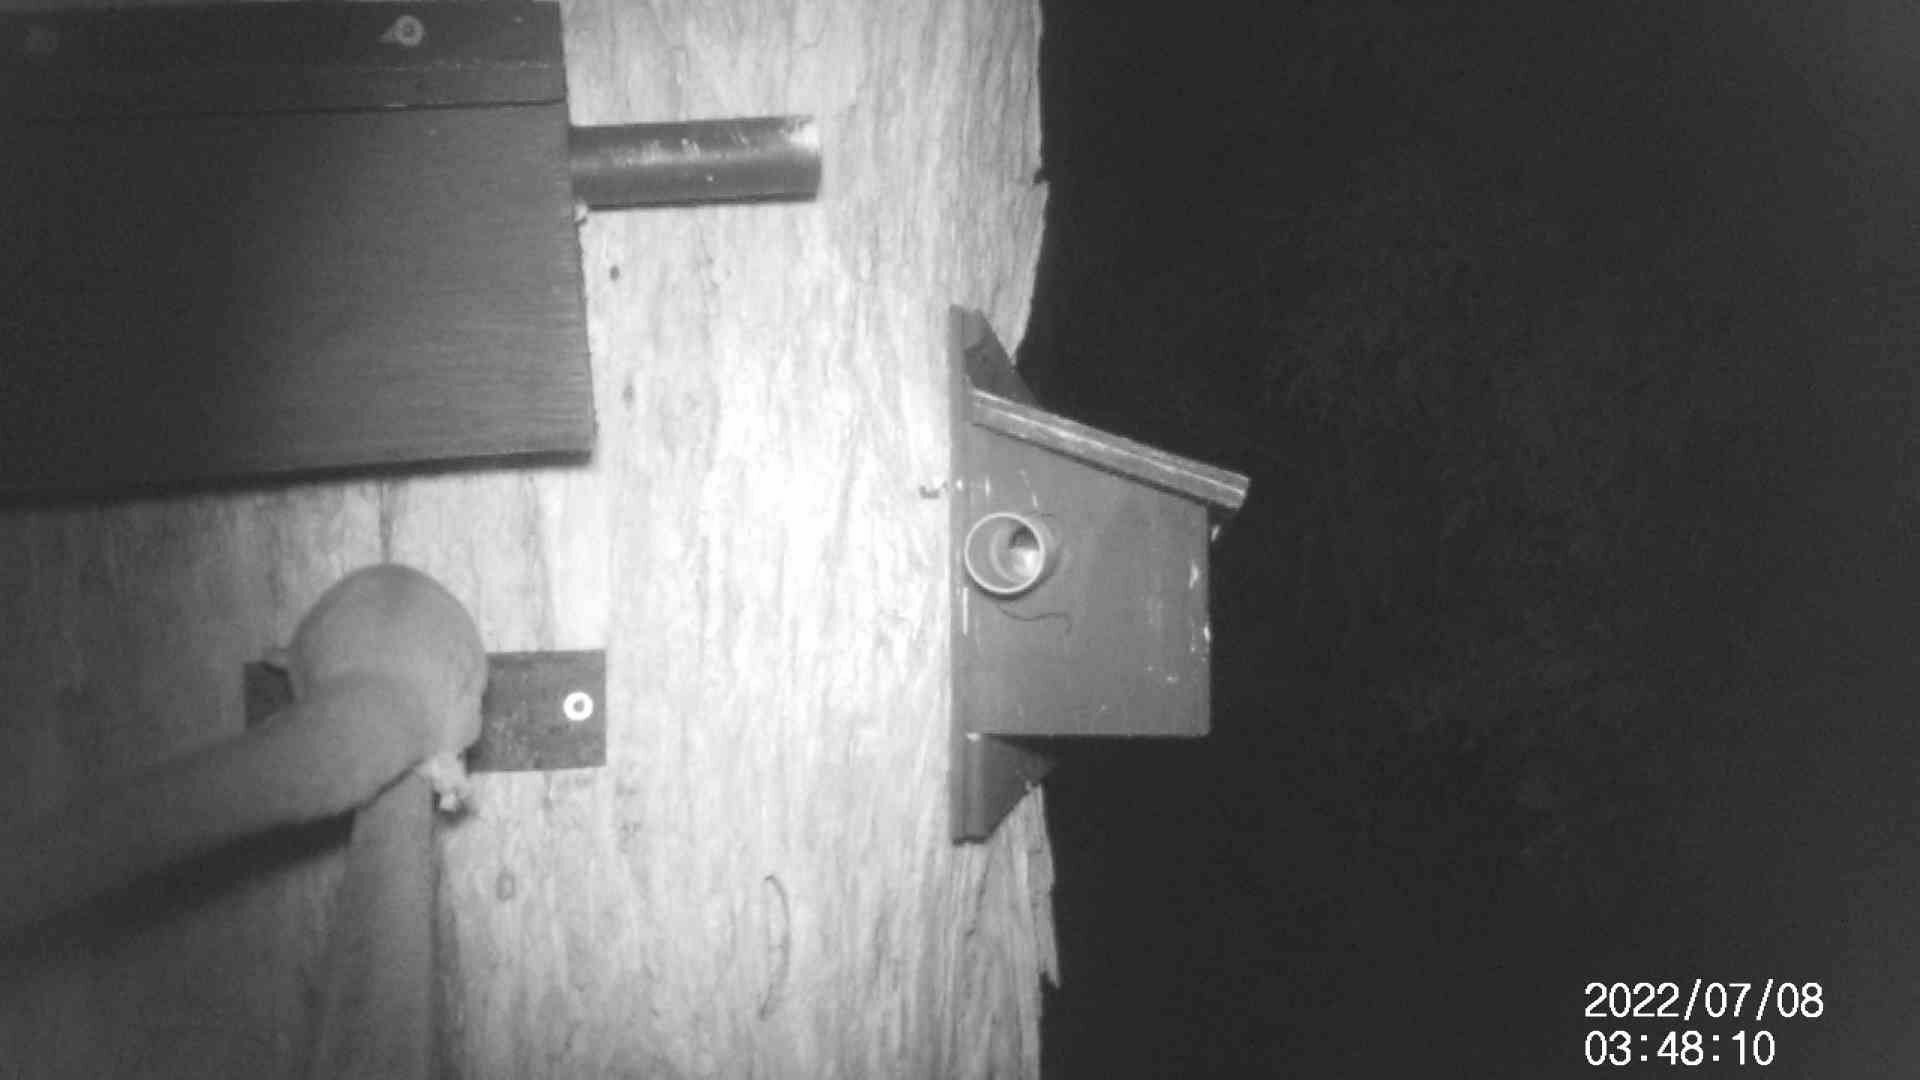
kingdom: Animalia
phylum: Chordata
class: Mammalia
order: Diprotodontia
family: Petauridae
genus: Petaurus
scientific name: Petaurus breviceps
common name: Sugar glider
